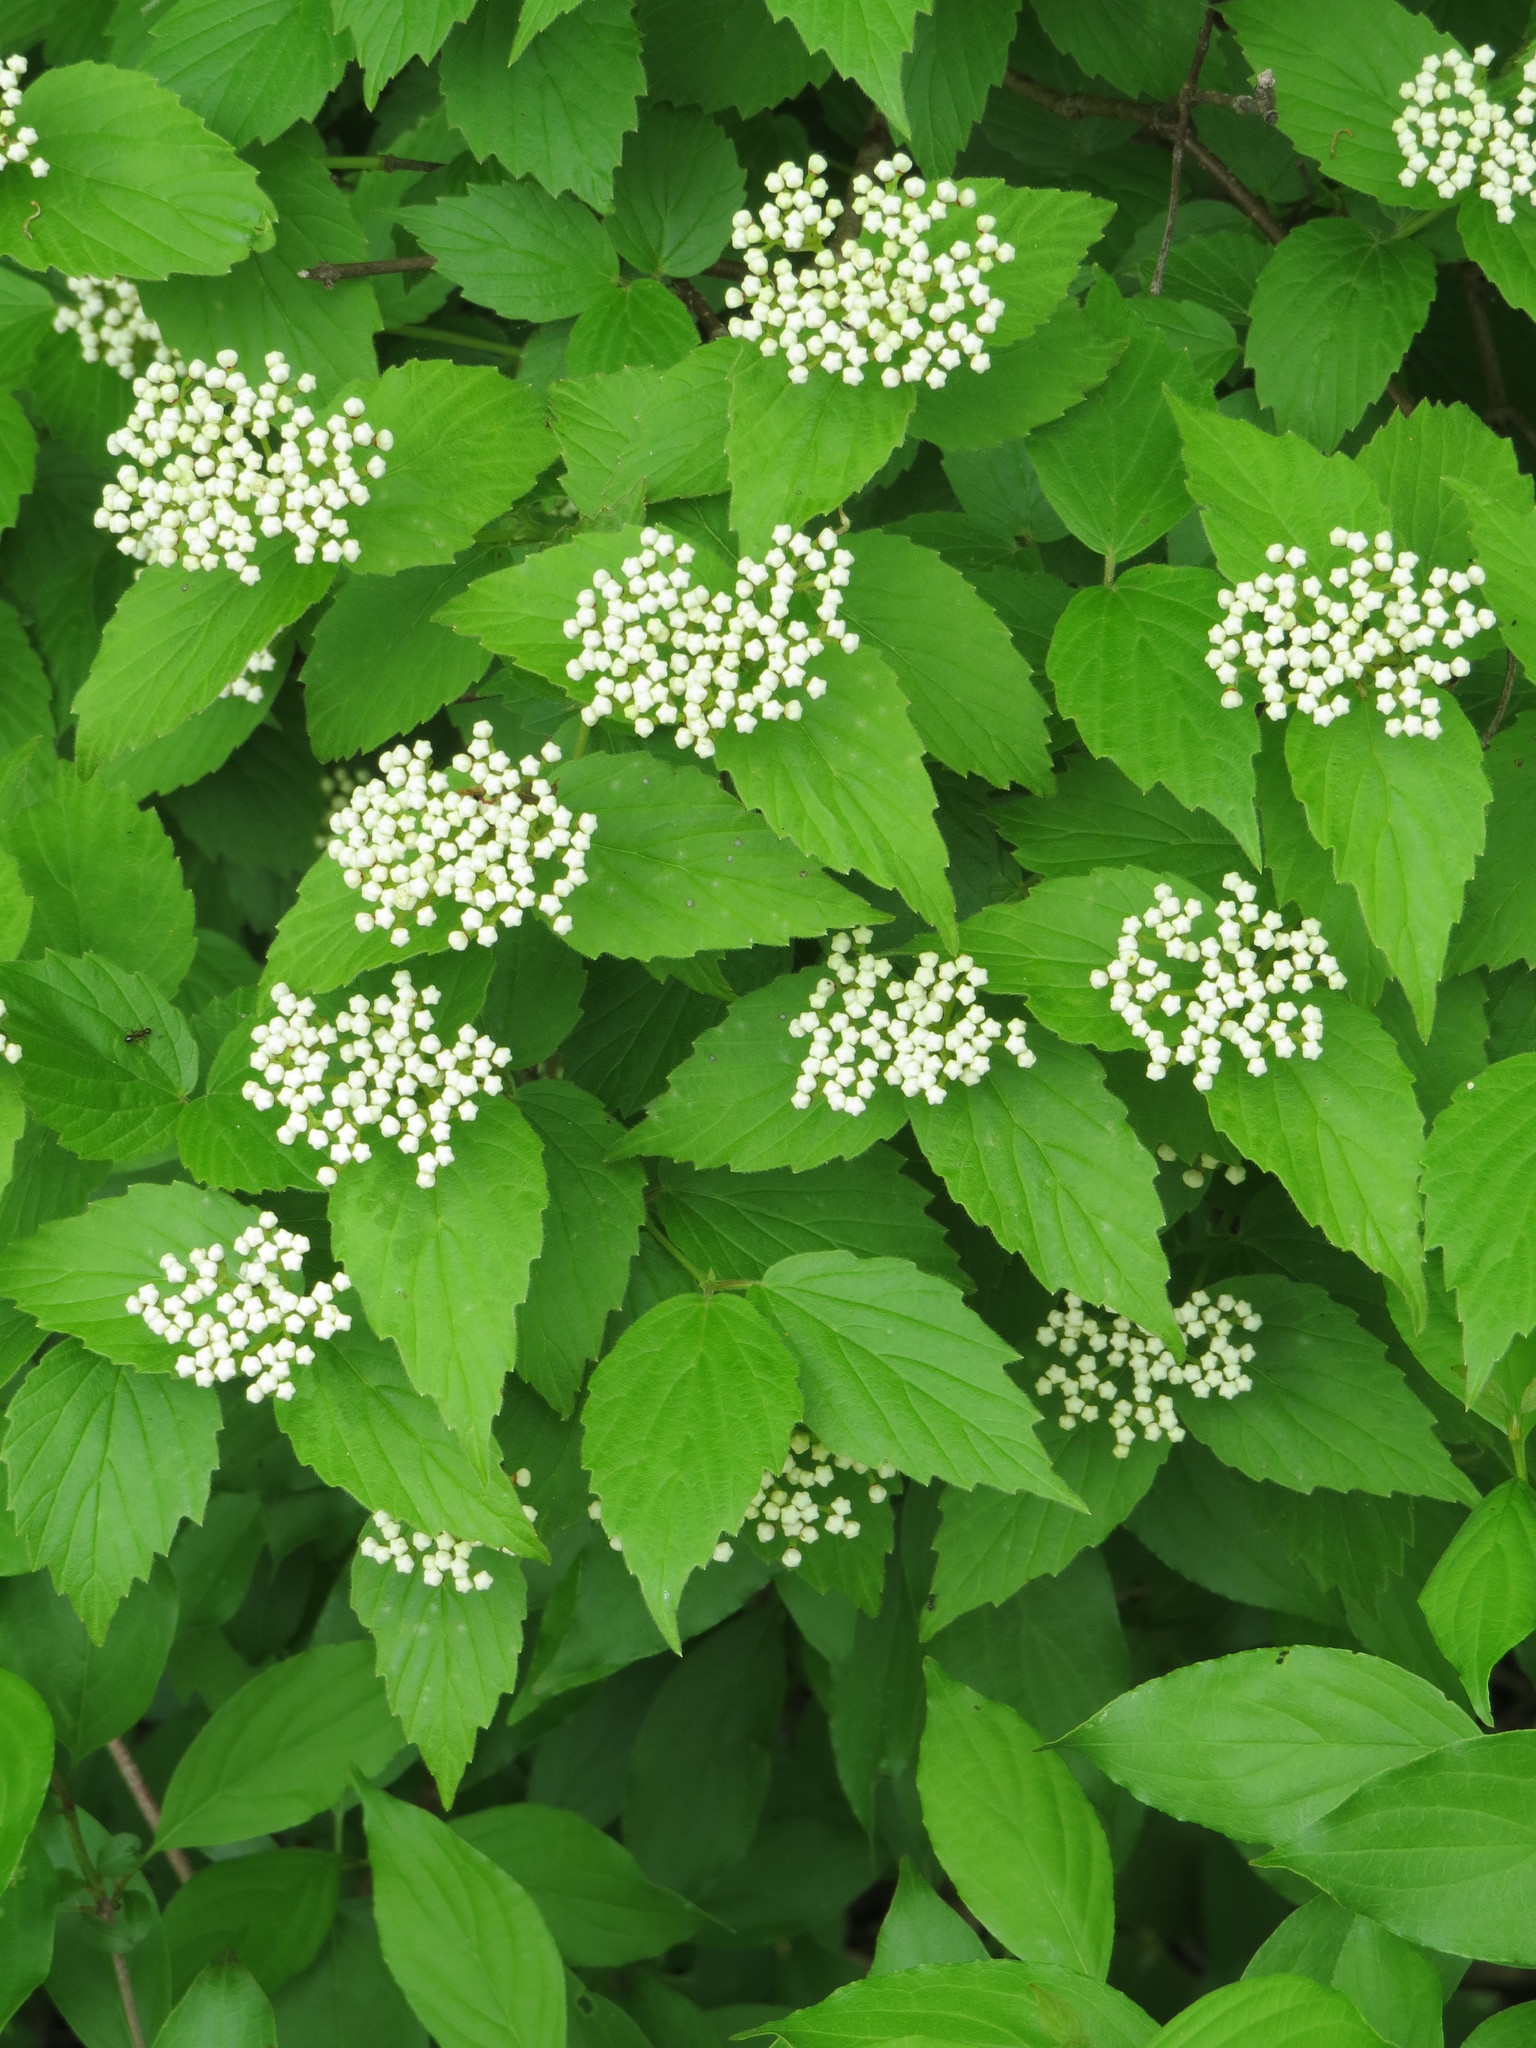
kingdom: Plantae
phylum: Tracheophyta
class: Magnoliopsida
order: Dipsacales
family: Viburnaceae
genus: Viburnum
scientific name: Viburnum rafinesqueanum
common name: Downy arrow-wood
